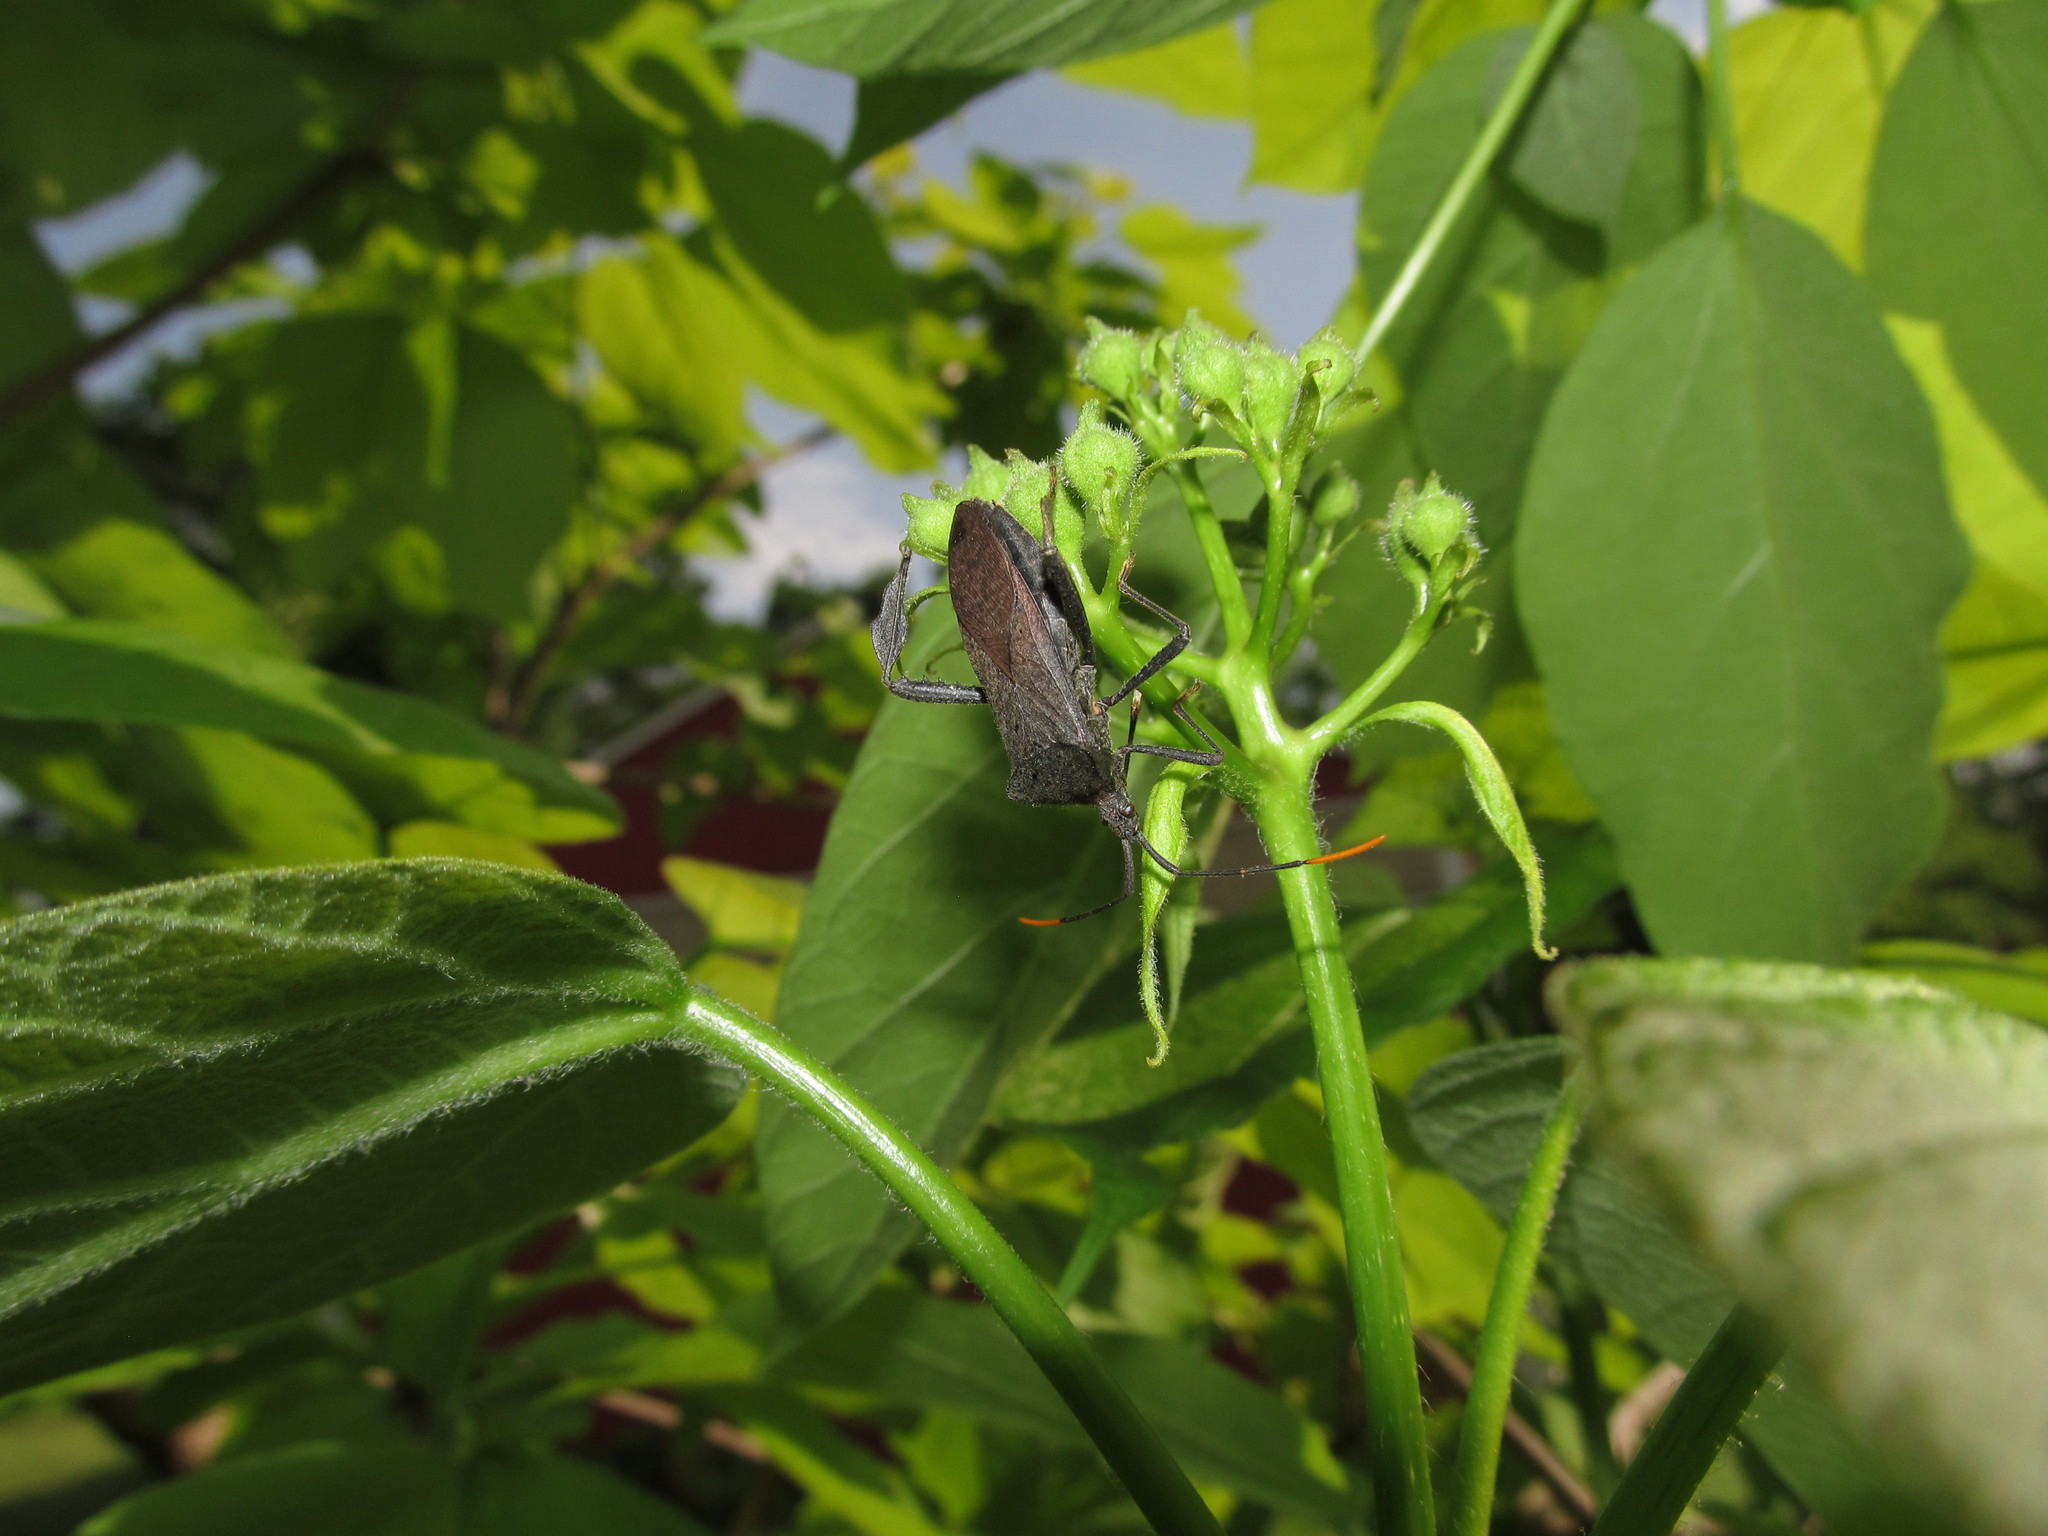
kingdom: Animalia
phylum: Arthropoda
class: Insecta
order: Hemiptera
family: Coreidae
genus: Acanthocephala
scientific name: Acanthocephala terminalis
